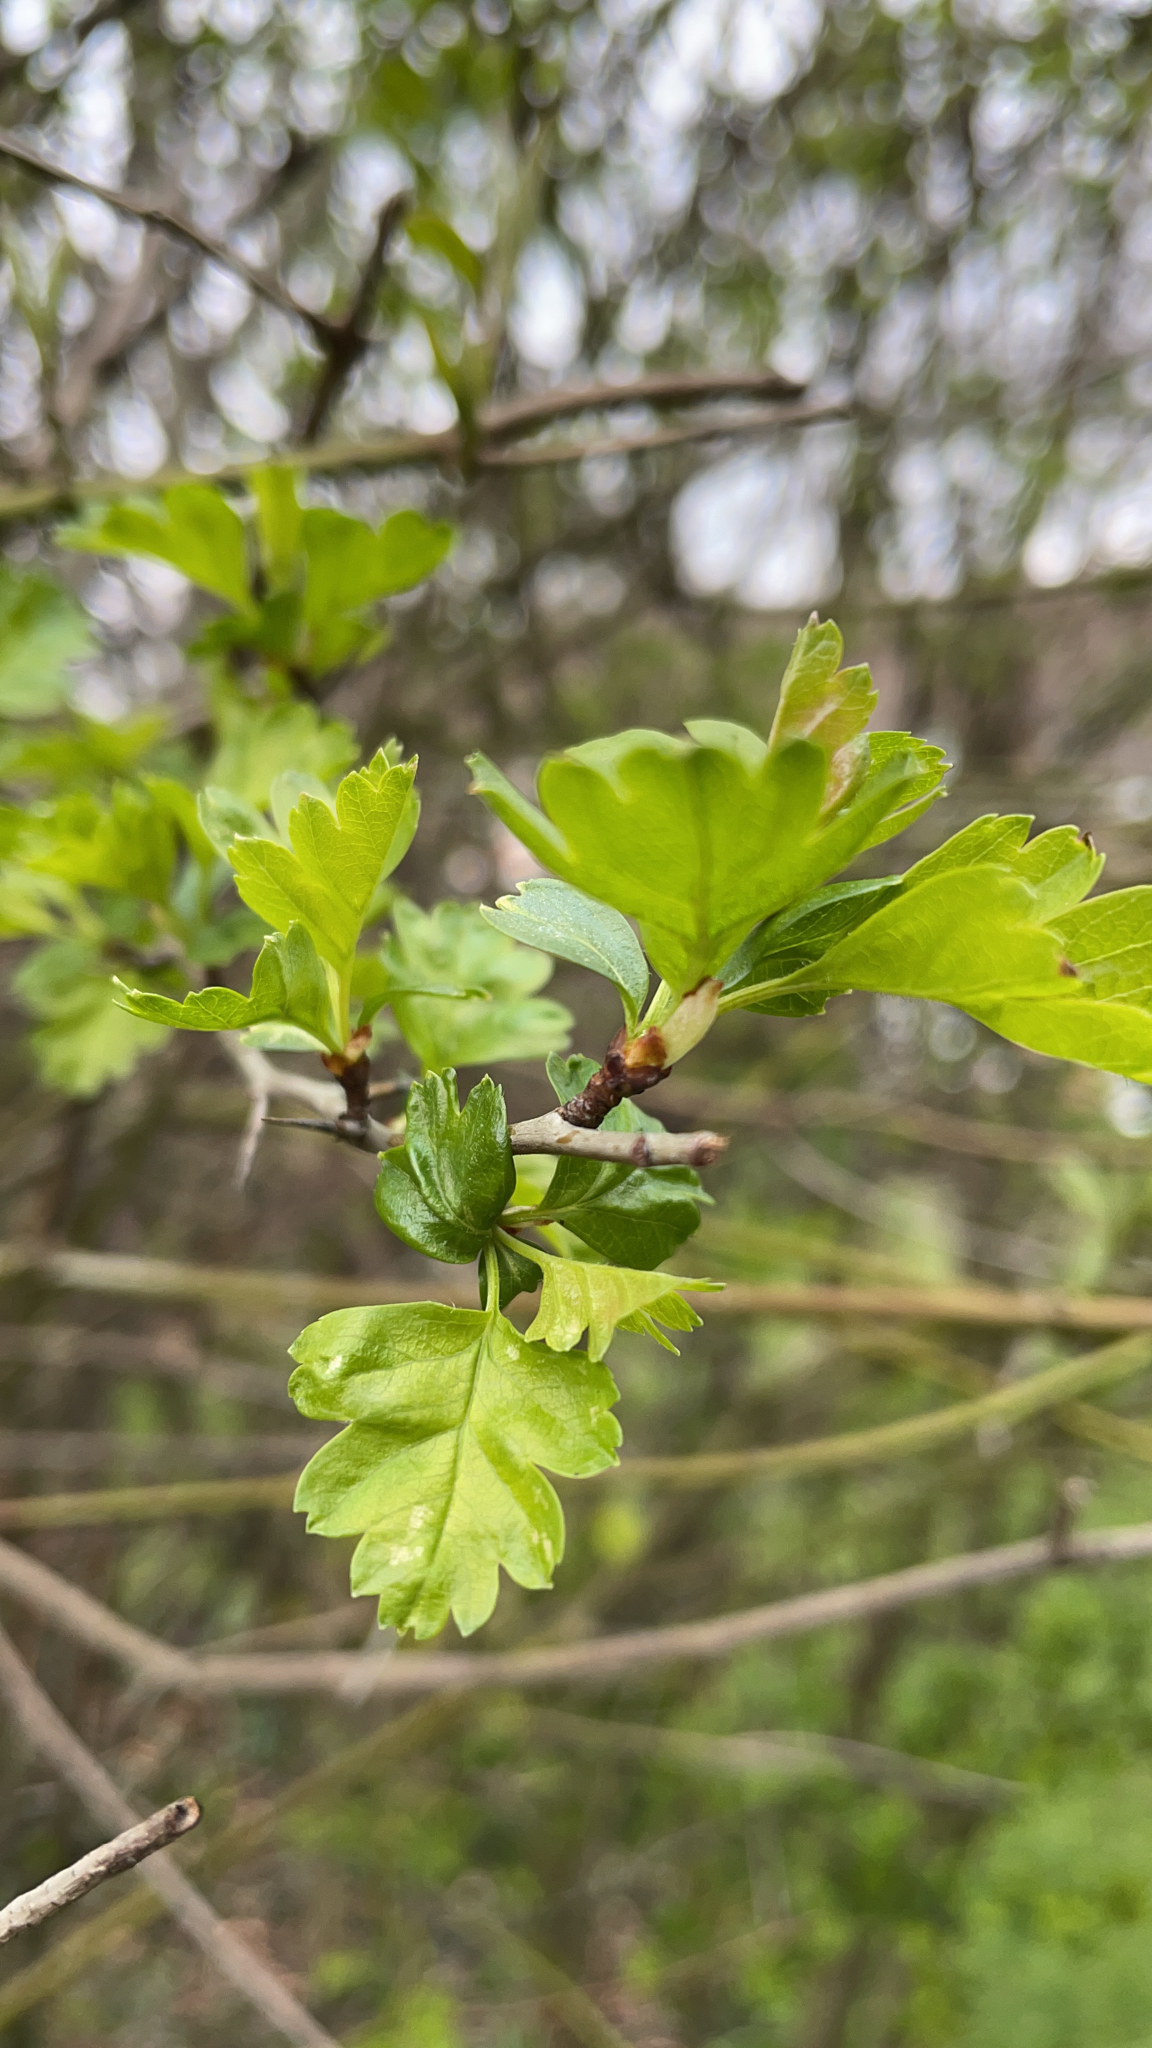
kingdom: Plantae
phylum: Tracheophyta
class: Magnoliopsida
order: Rosales
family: Rosaceae
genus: Crataegus
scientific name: Crataegus monogyna
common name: Hawthorn
